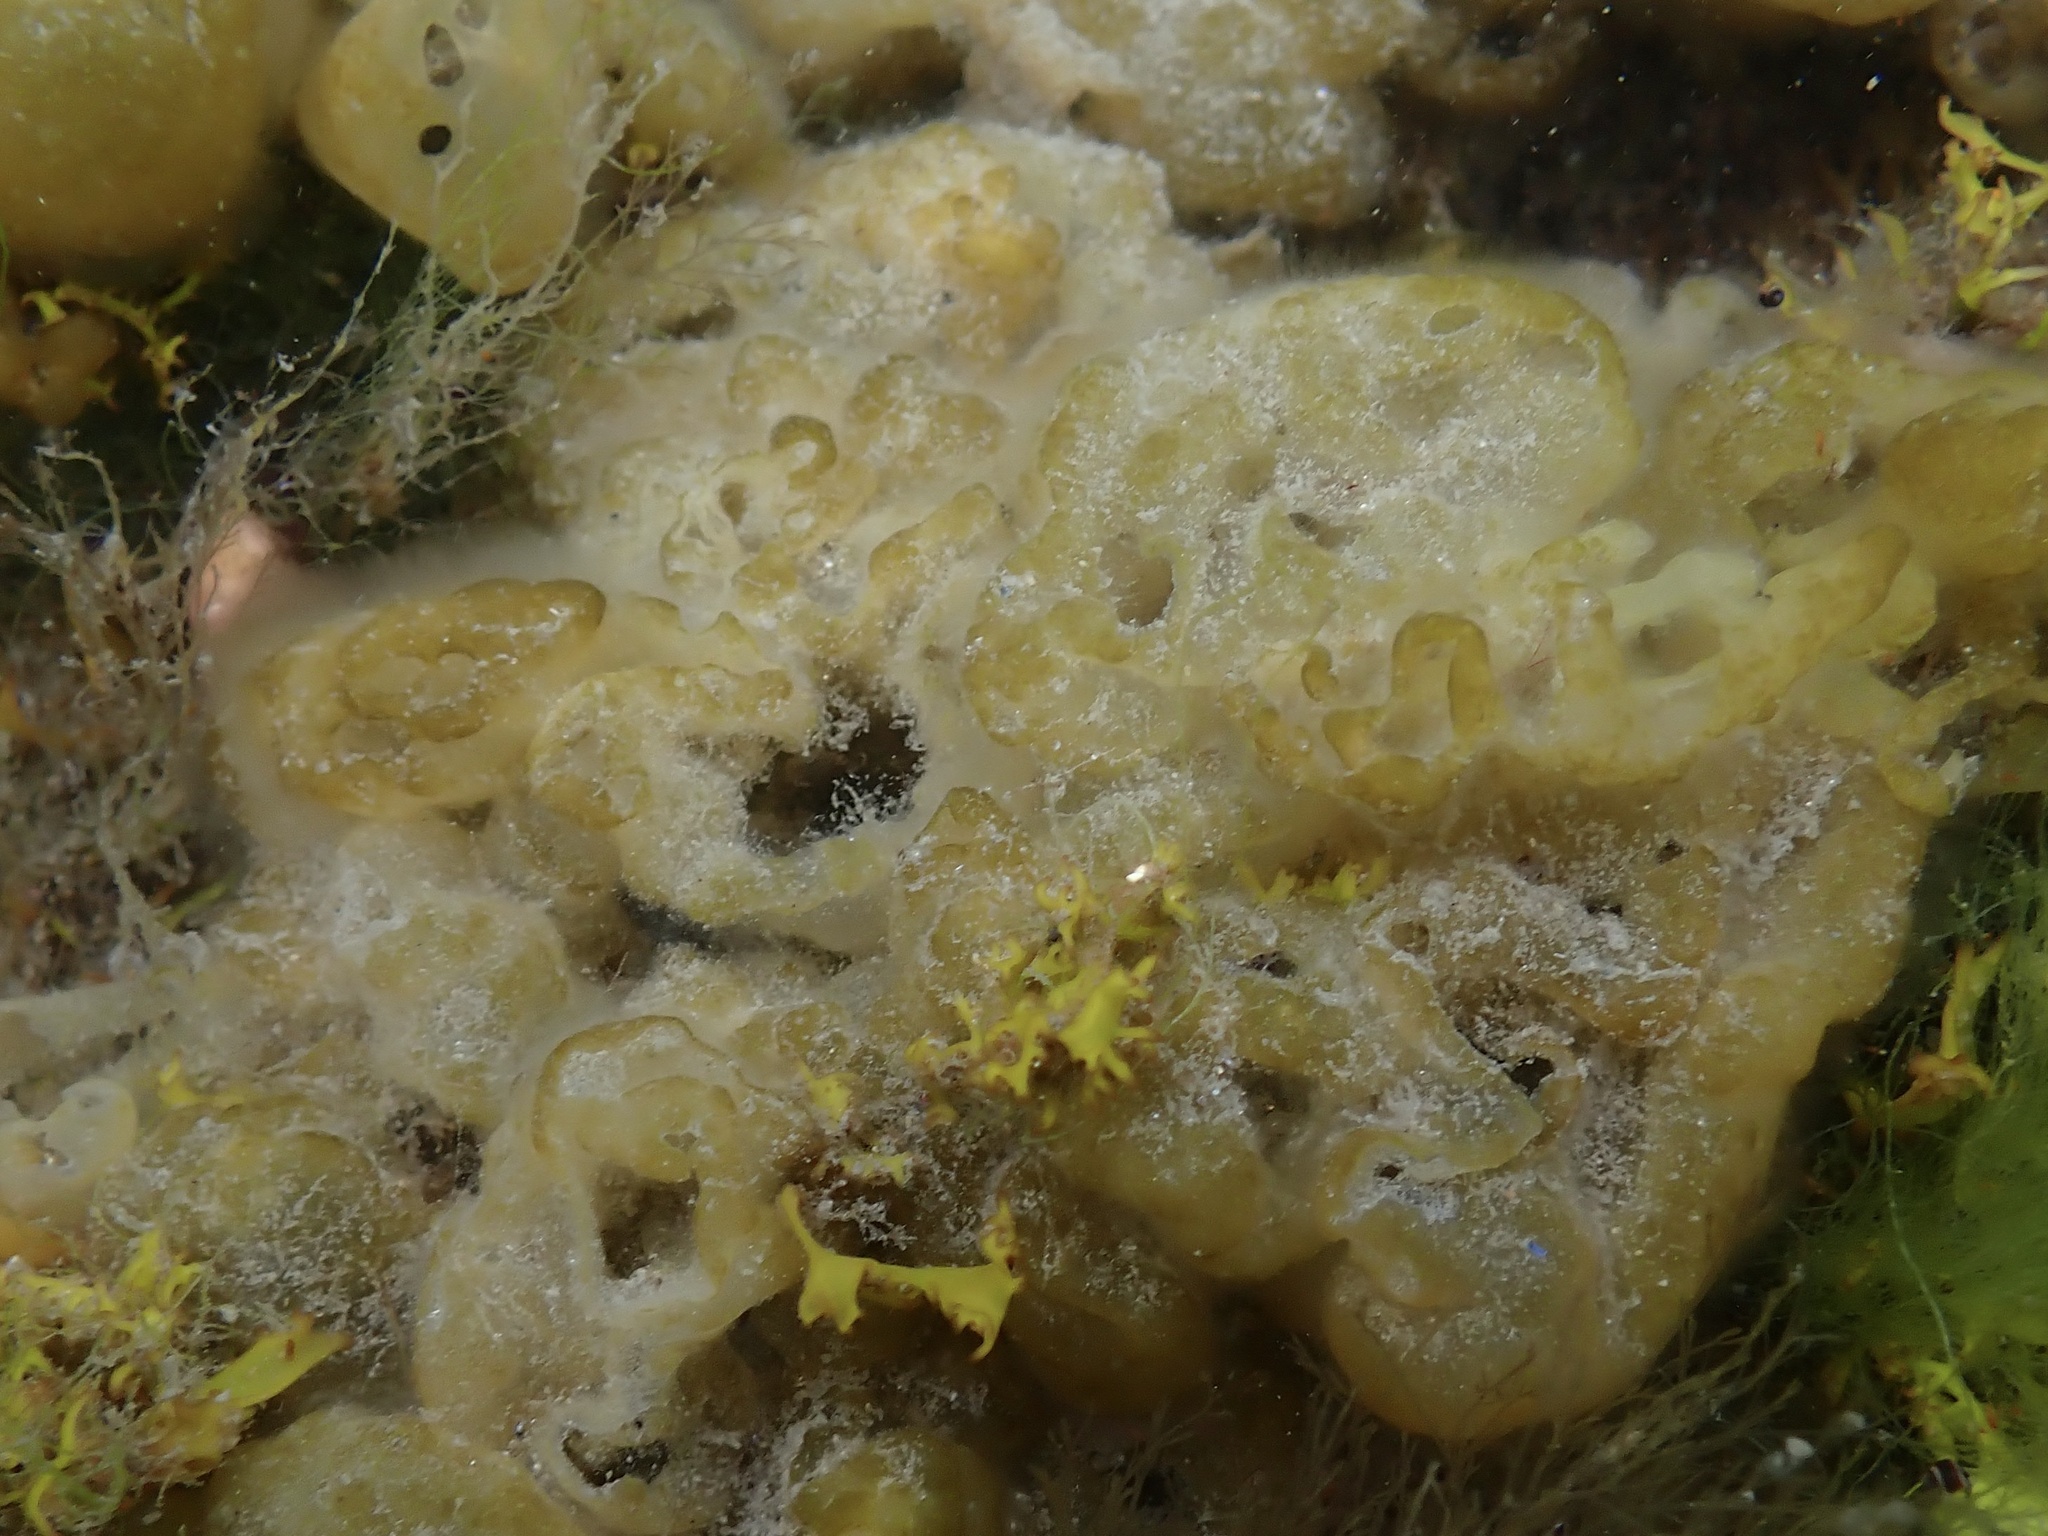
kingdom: Chromista
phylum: Ochrophyta
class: Phaeophyceae
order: Ectocarpales
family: Chordariaceae
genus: Leathesia
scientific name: Leathesia marina
